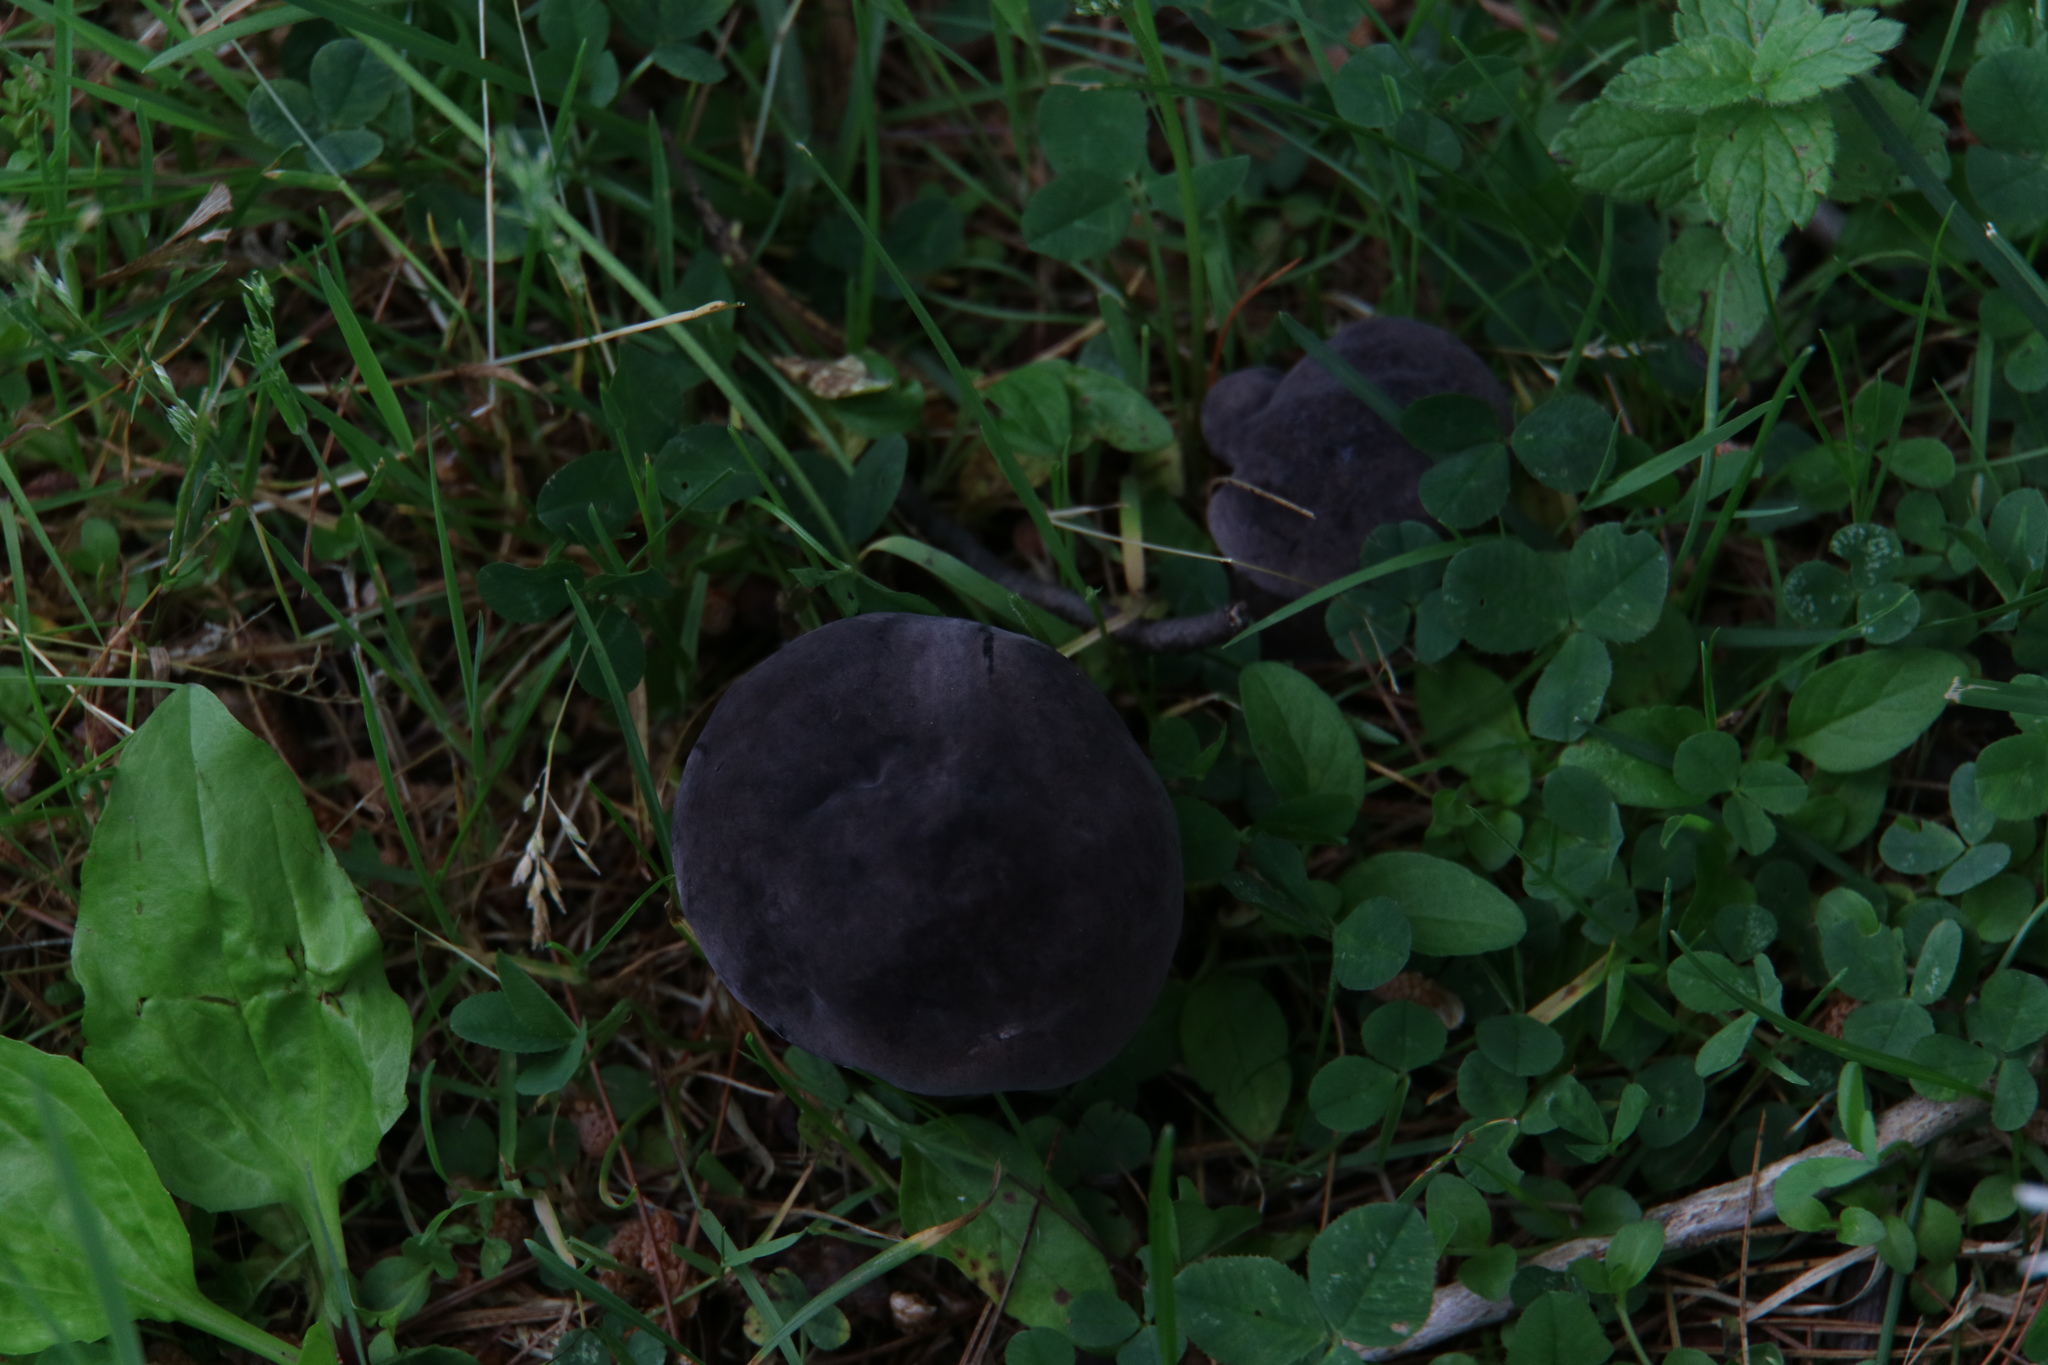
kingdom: Fungi
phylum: Basidiomycota
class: Agaricomycetes
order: Boletales
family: Boletaceae
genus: Tylopilus
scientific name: Tylopilus alboater
